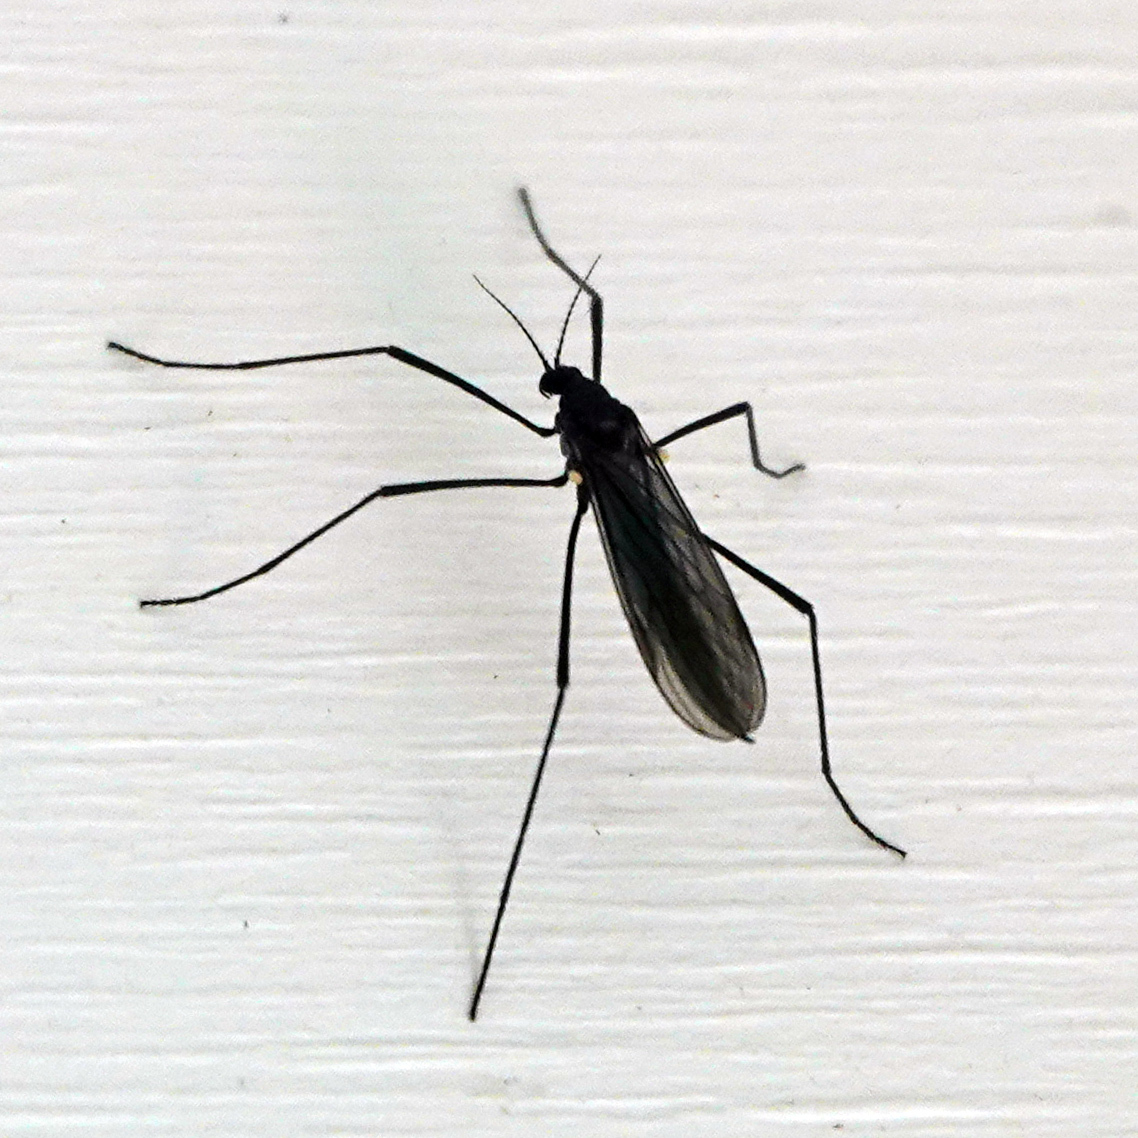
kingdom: Animalia
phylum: Arthropoda
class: Insecta
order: Diptera
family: Limoniidae
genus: Gnophomyia
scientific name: Gnophomyia tristissima
